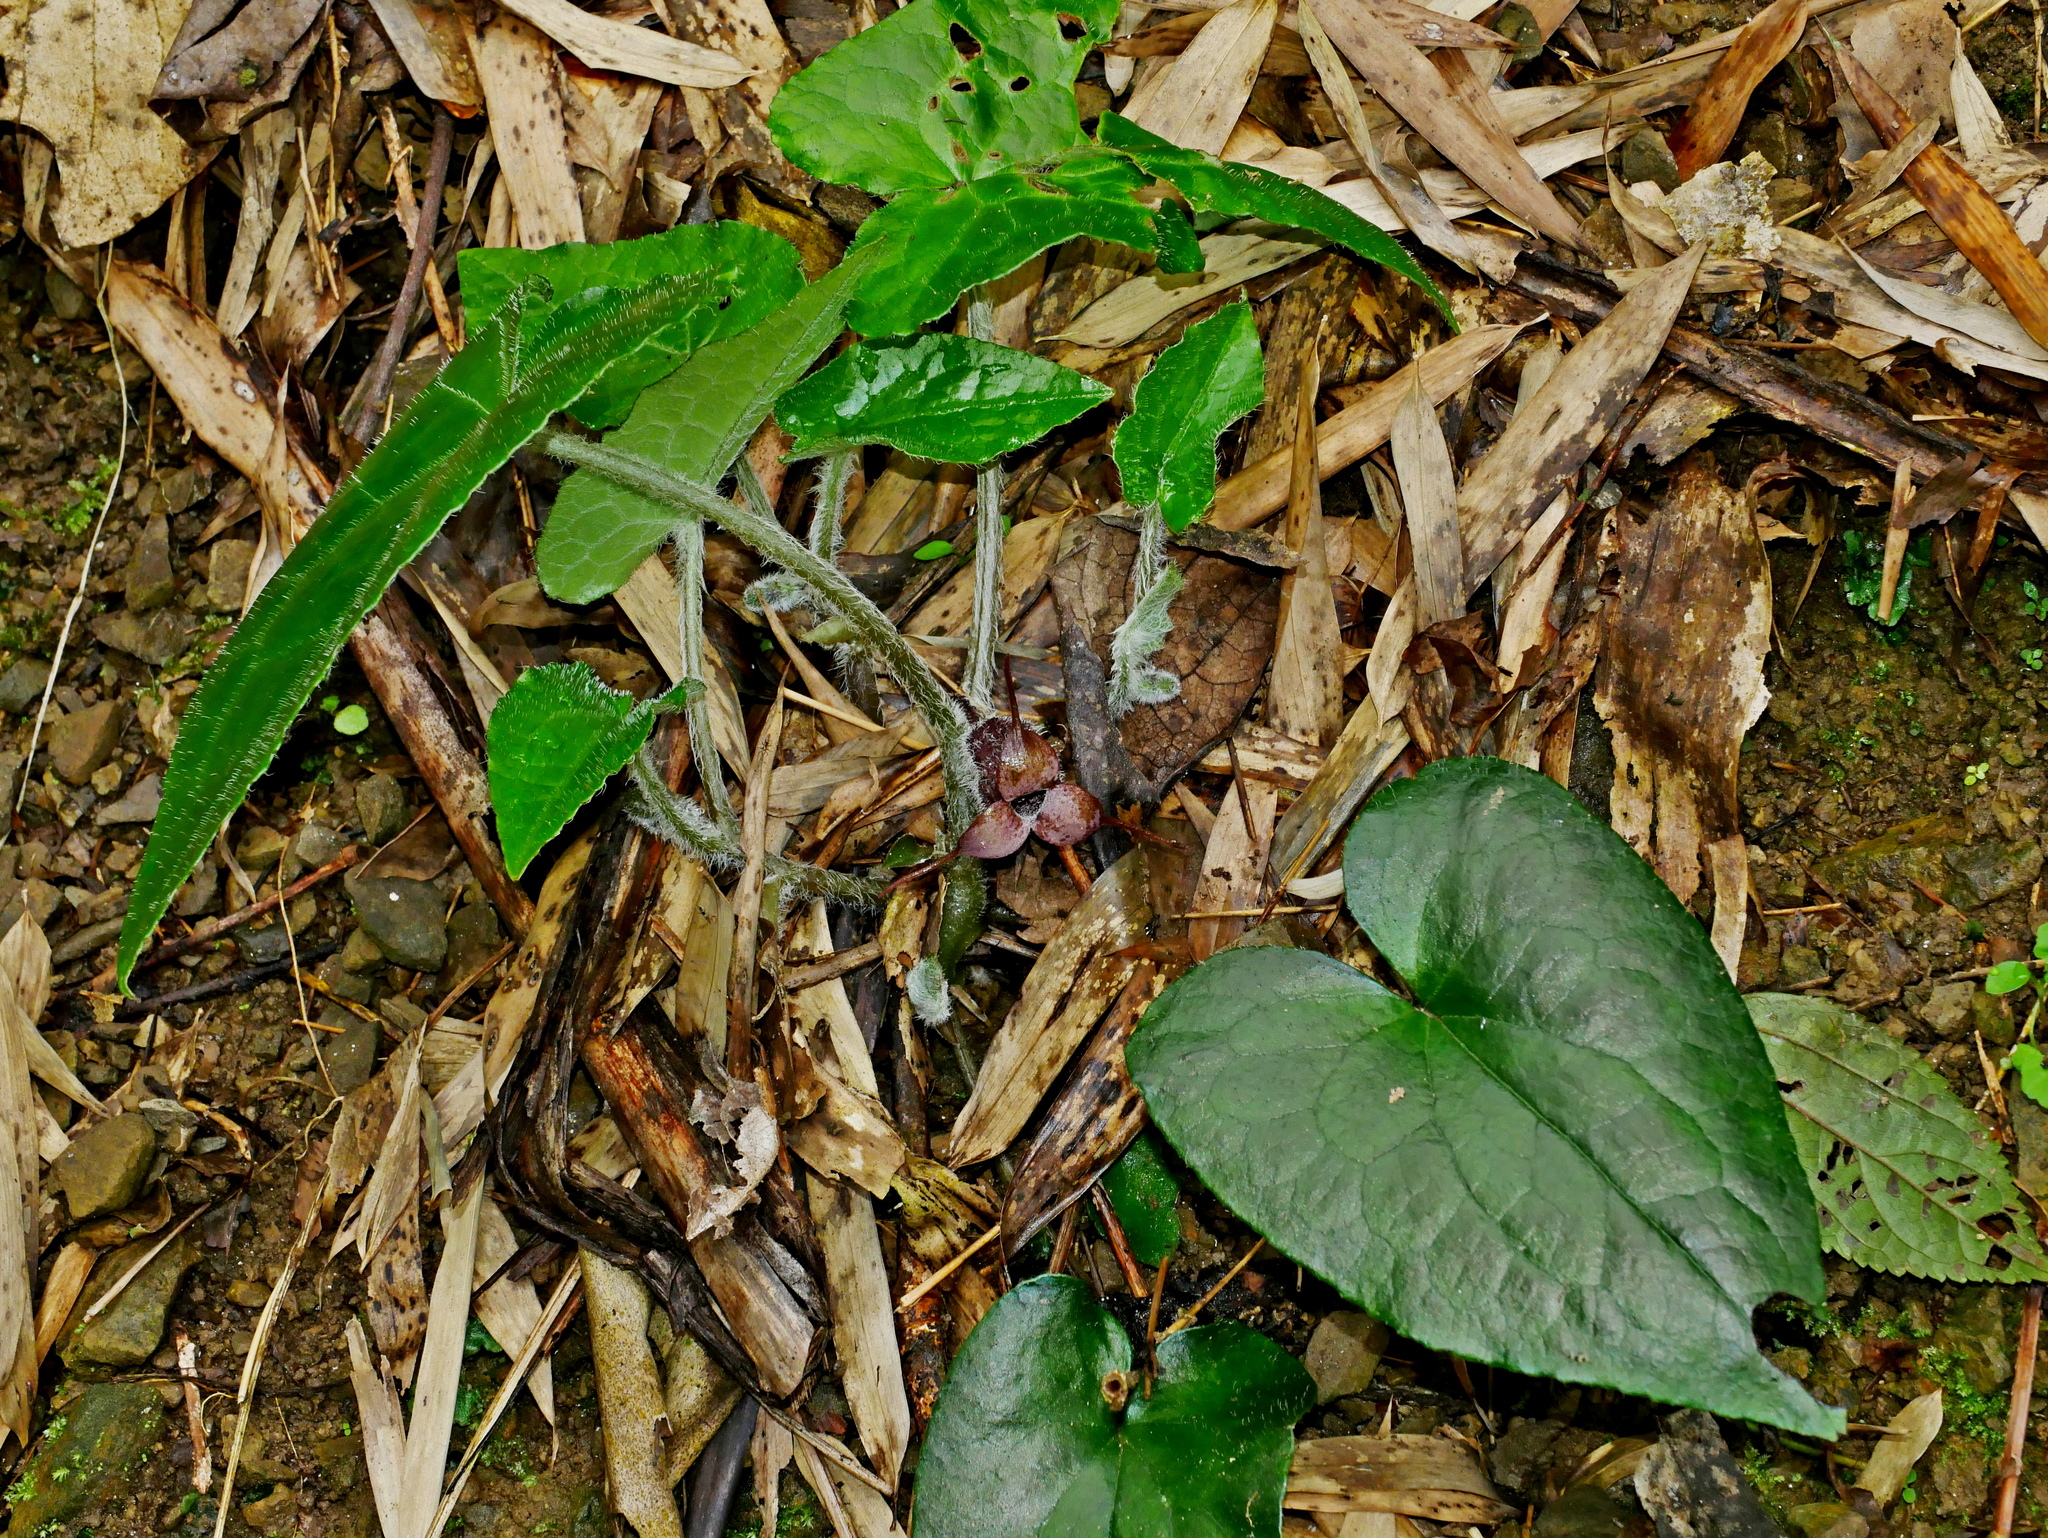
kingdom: Plantae
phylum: Tracheophyta
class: Magnoliopsida
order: Piperales
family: Aristolochiaceae
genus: Asarum
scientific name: Asarum caudigerum
